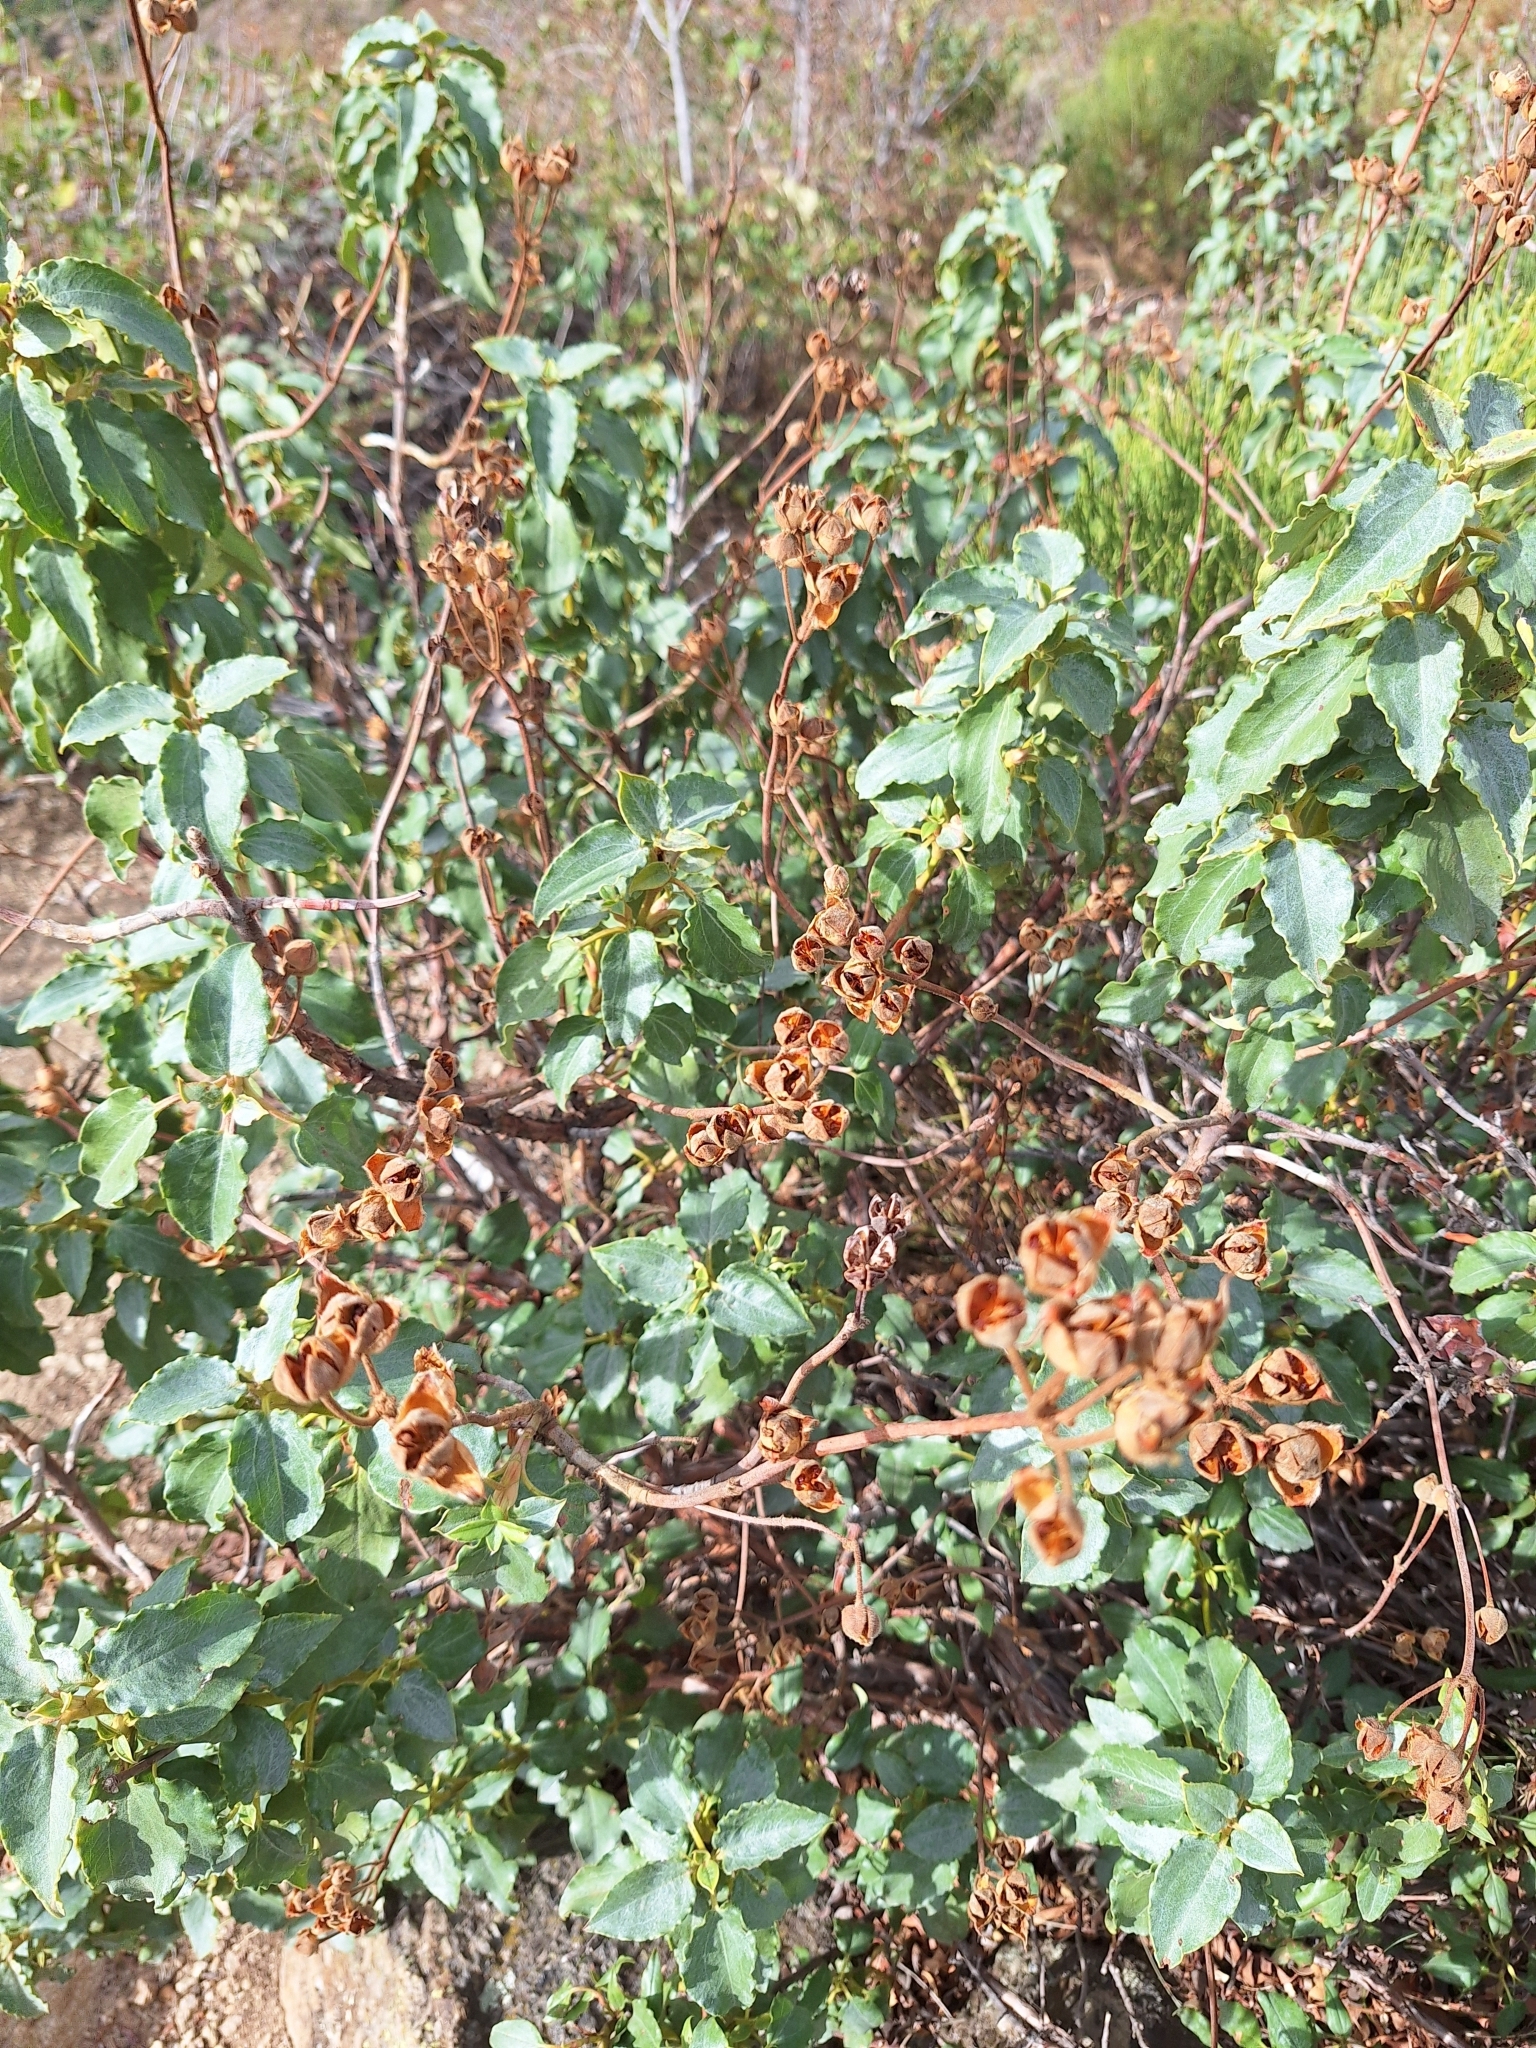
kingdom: Plantae
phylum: Tracheophyta
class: Magnoliopsida
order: Malvales
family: Cistaceae
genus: Cistus
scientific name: Cistus laurifolius
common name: Laurel-leaved cistus
